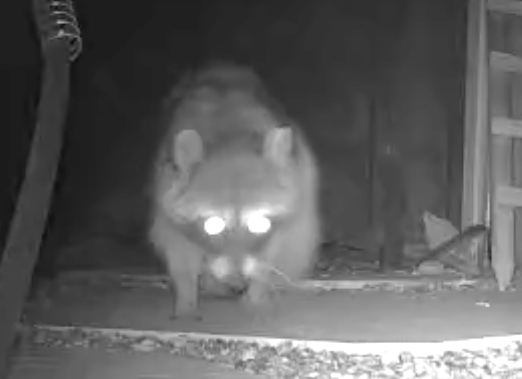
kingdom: Animalia
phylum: Chordata
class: Mammalia
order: Carnivora
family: Procyonidae
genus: Procyon
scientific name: Procyon lotor
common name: Raccoon
